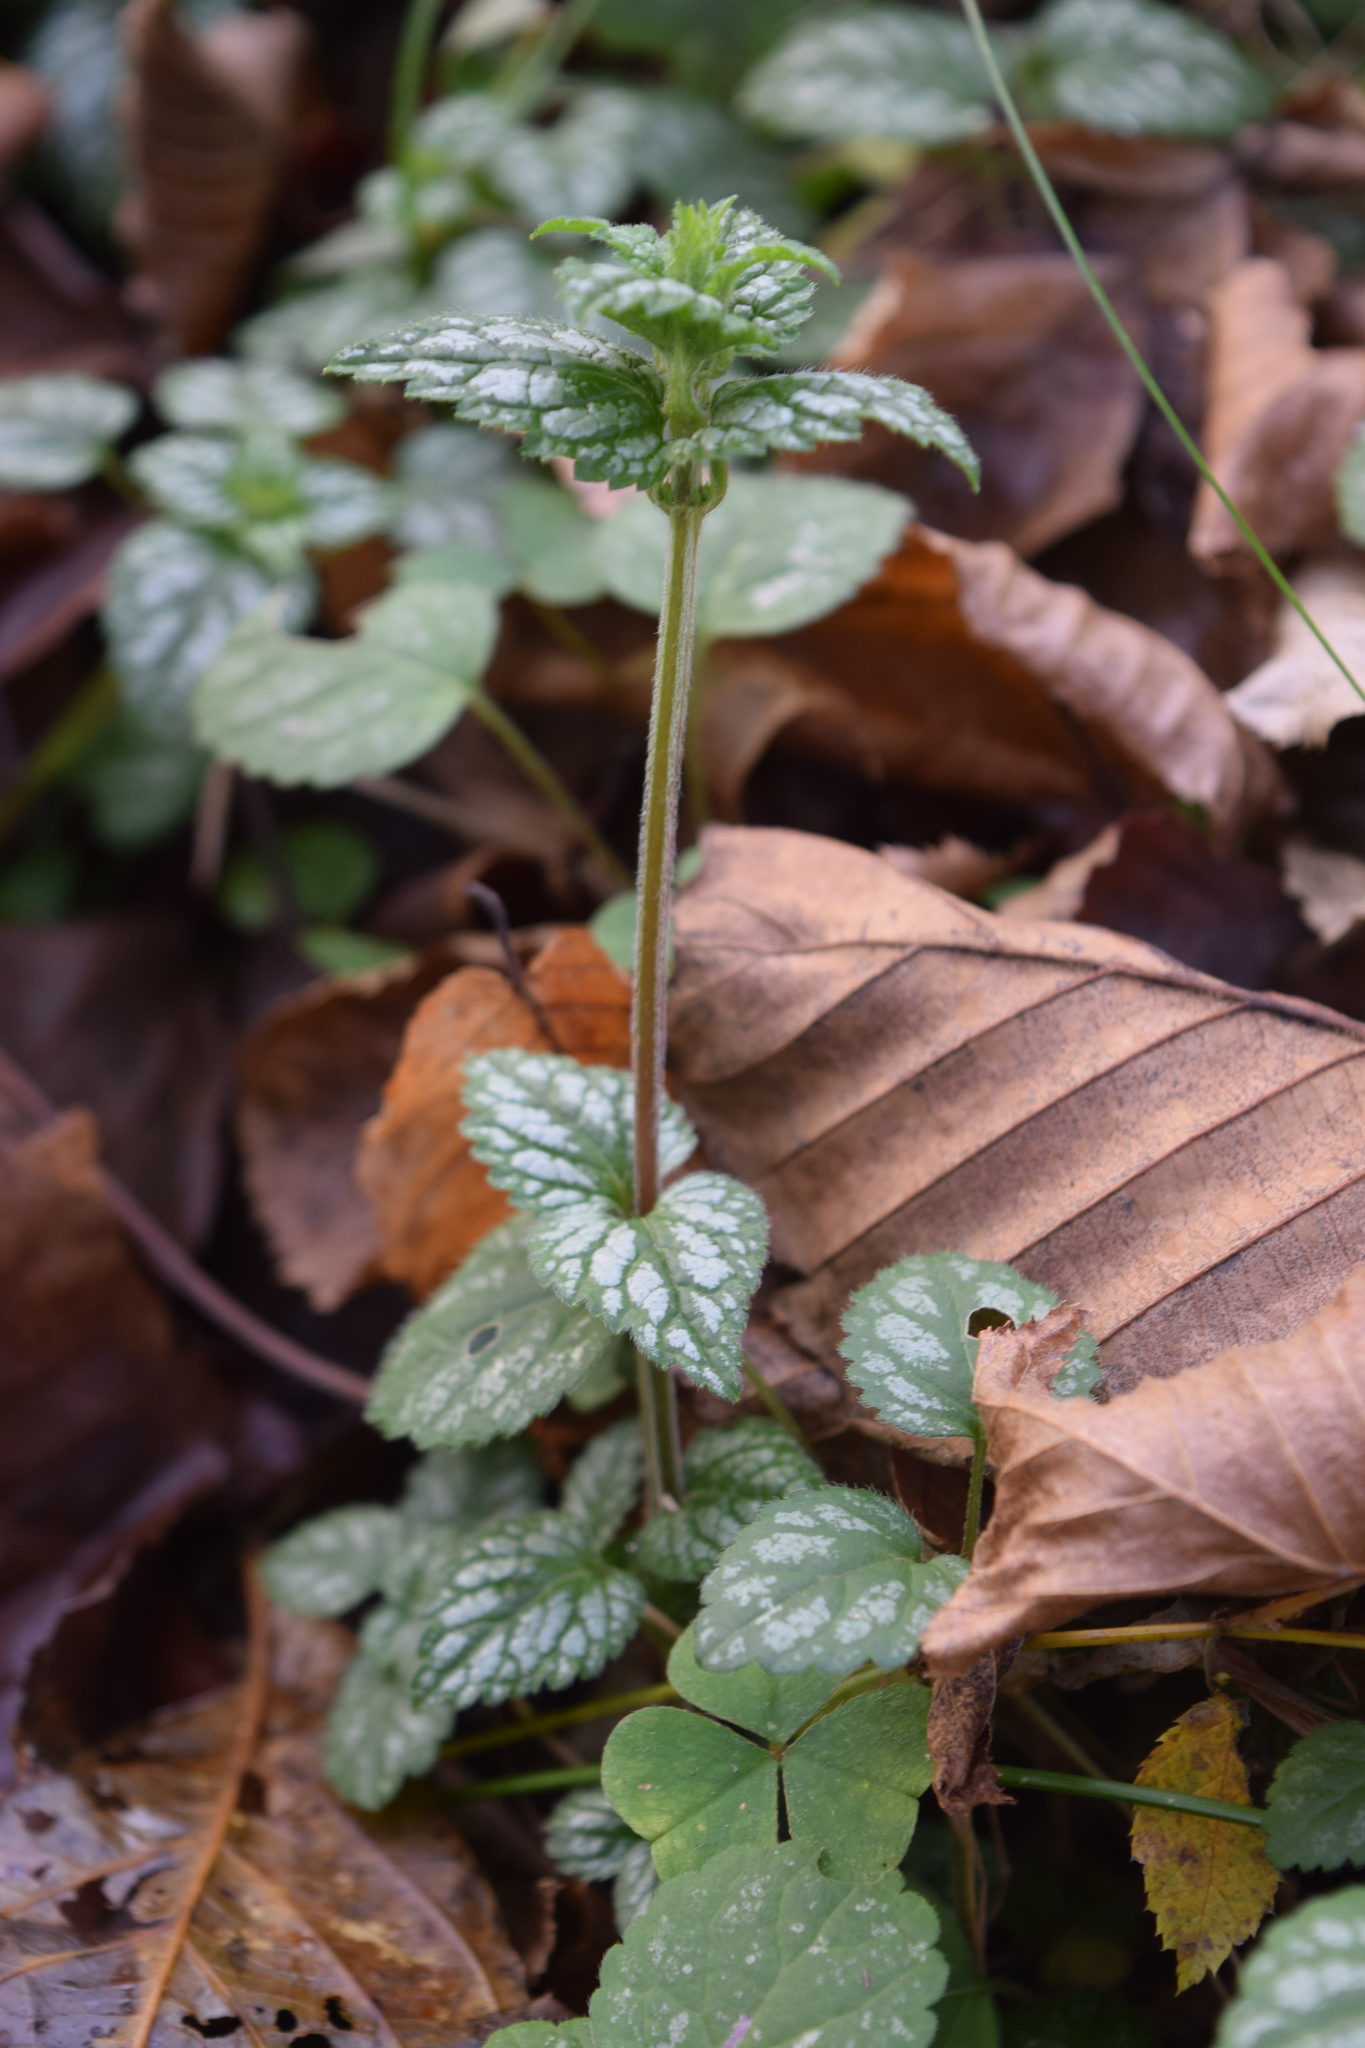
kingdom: Plantae
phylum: Tracheophyta
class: Magnoliopsida
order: Lamiales
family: Lamiaceae
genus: Lamium
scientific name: Lamium galeobdolon
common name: Yellow archangel
